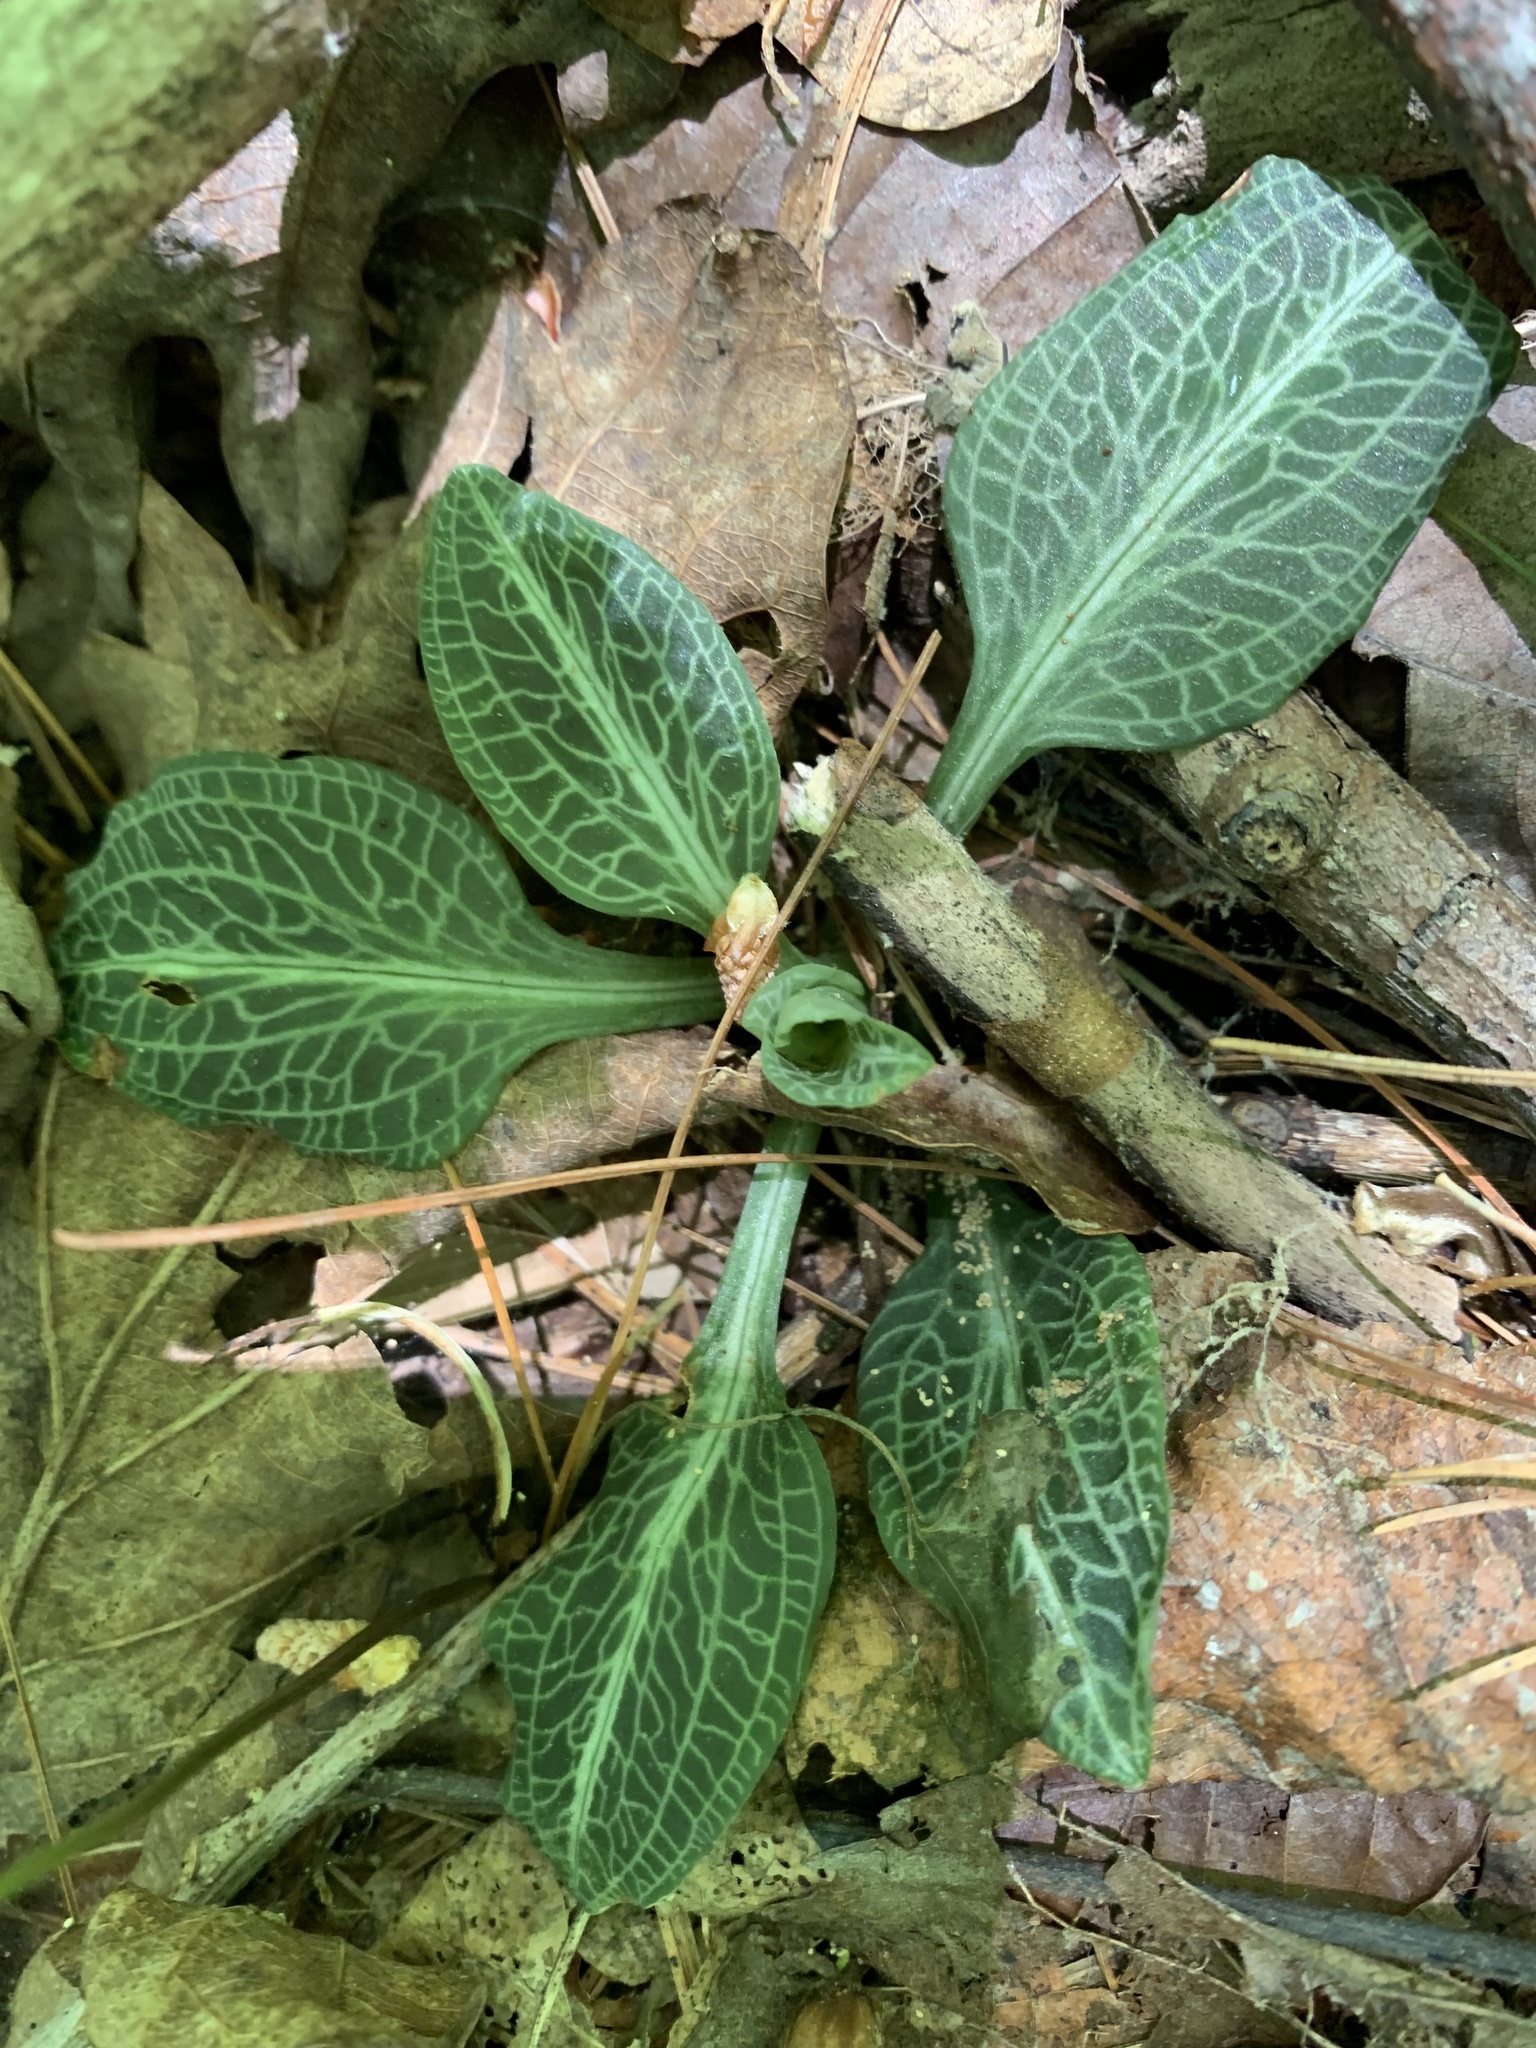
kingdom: Plantae
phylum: Tracheophyta
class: Liliopsida
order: Asparagales
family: Orchidaceae
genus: Goodyera
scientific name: Goodyera pubescens
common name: Downy rattlesnake-plantain
